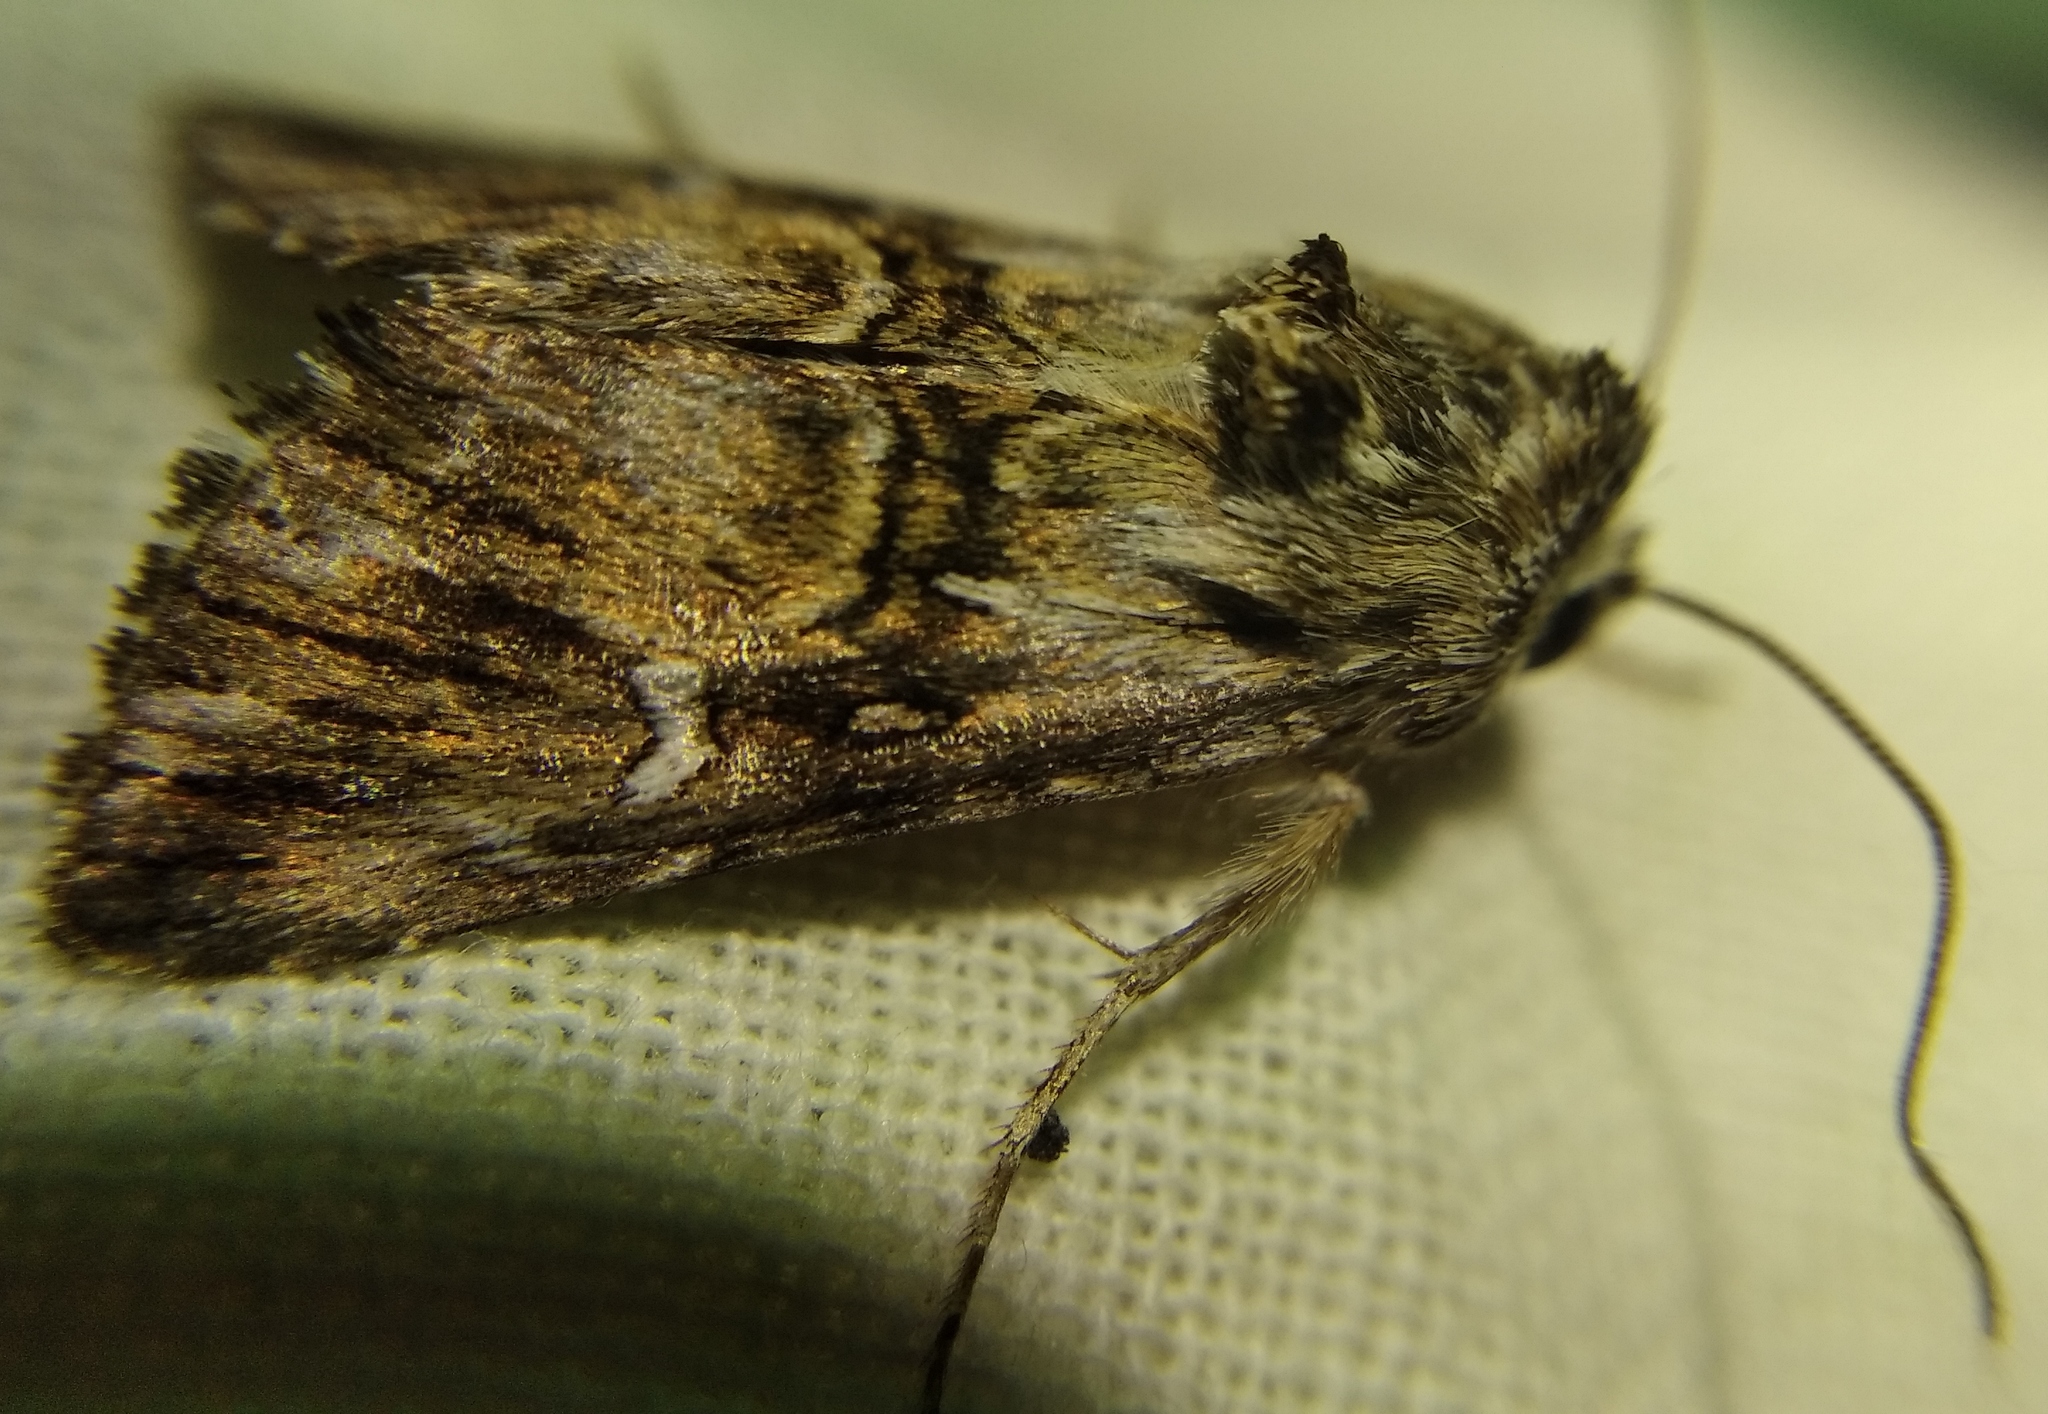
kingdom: Animalia
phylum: Arthropoda
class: Insecta
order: Lepidoptera
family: Noctuidae
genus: Calophasia
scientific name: Calophasia lunula
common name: Toadflax brocade
